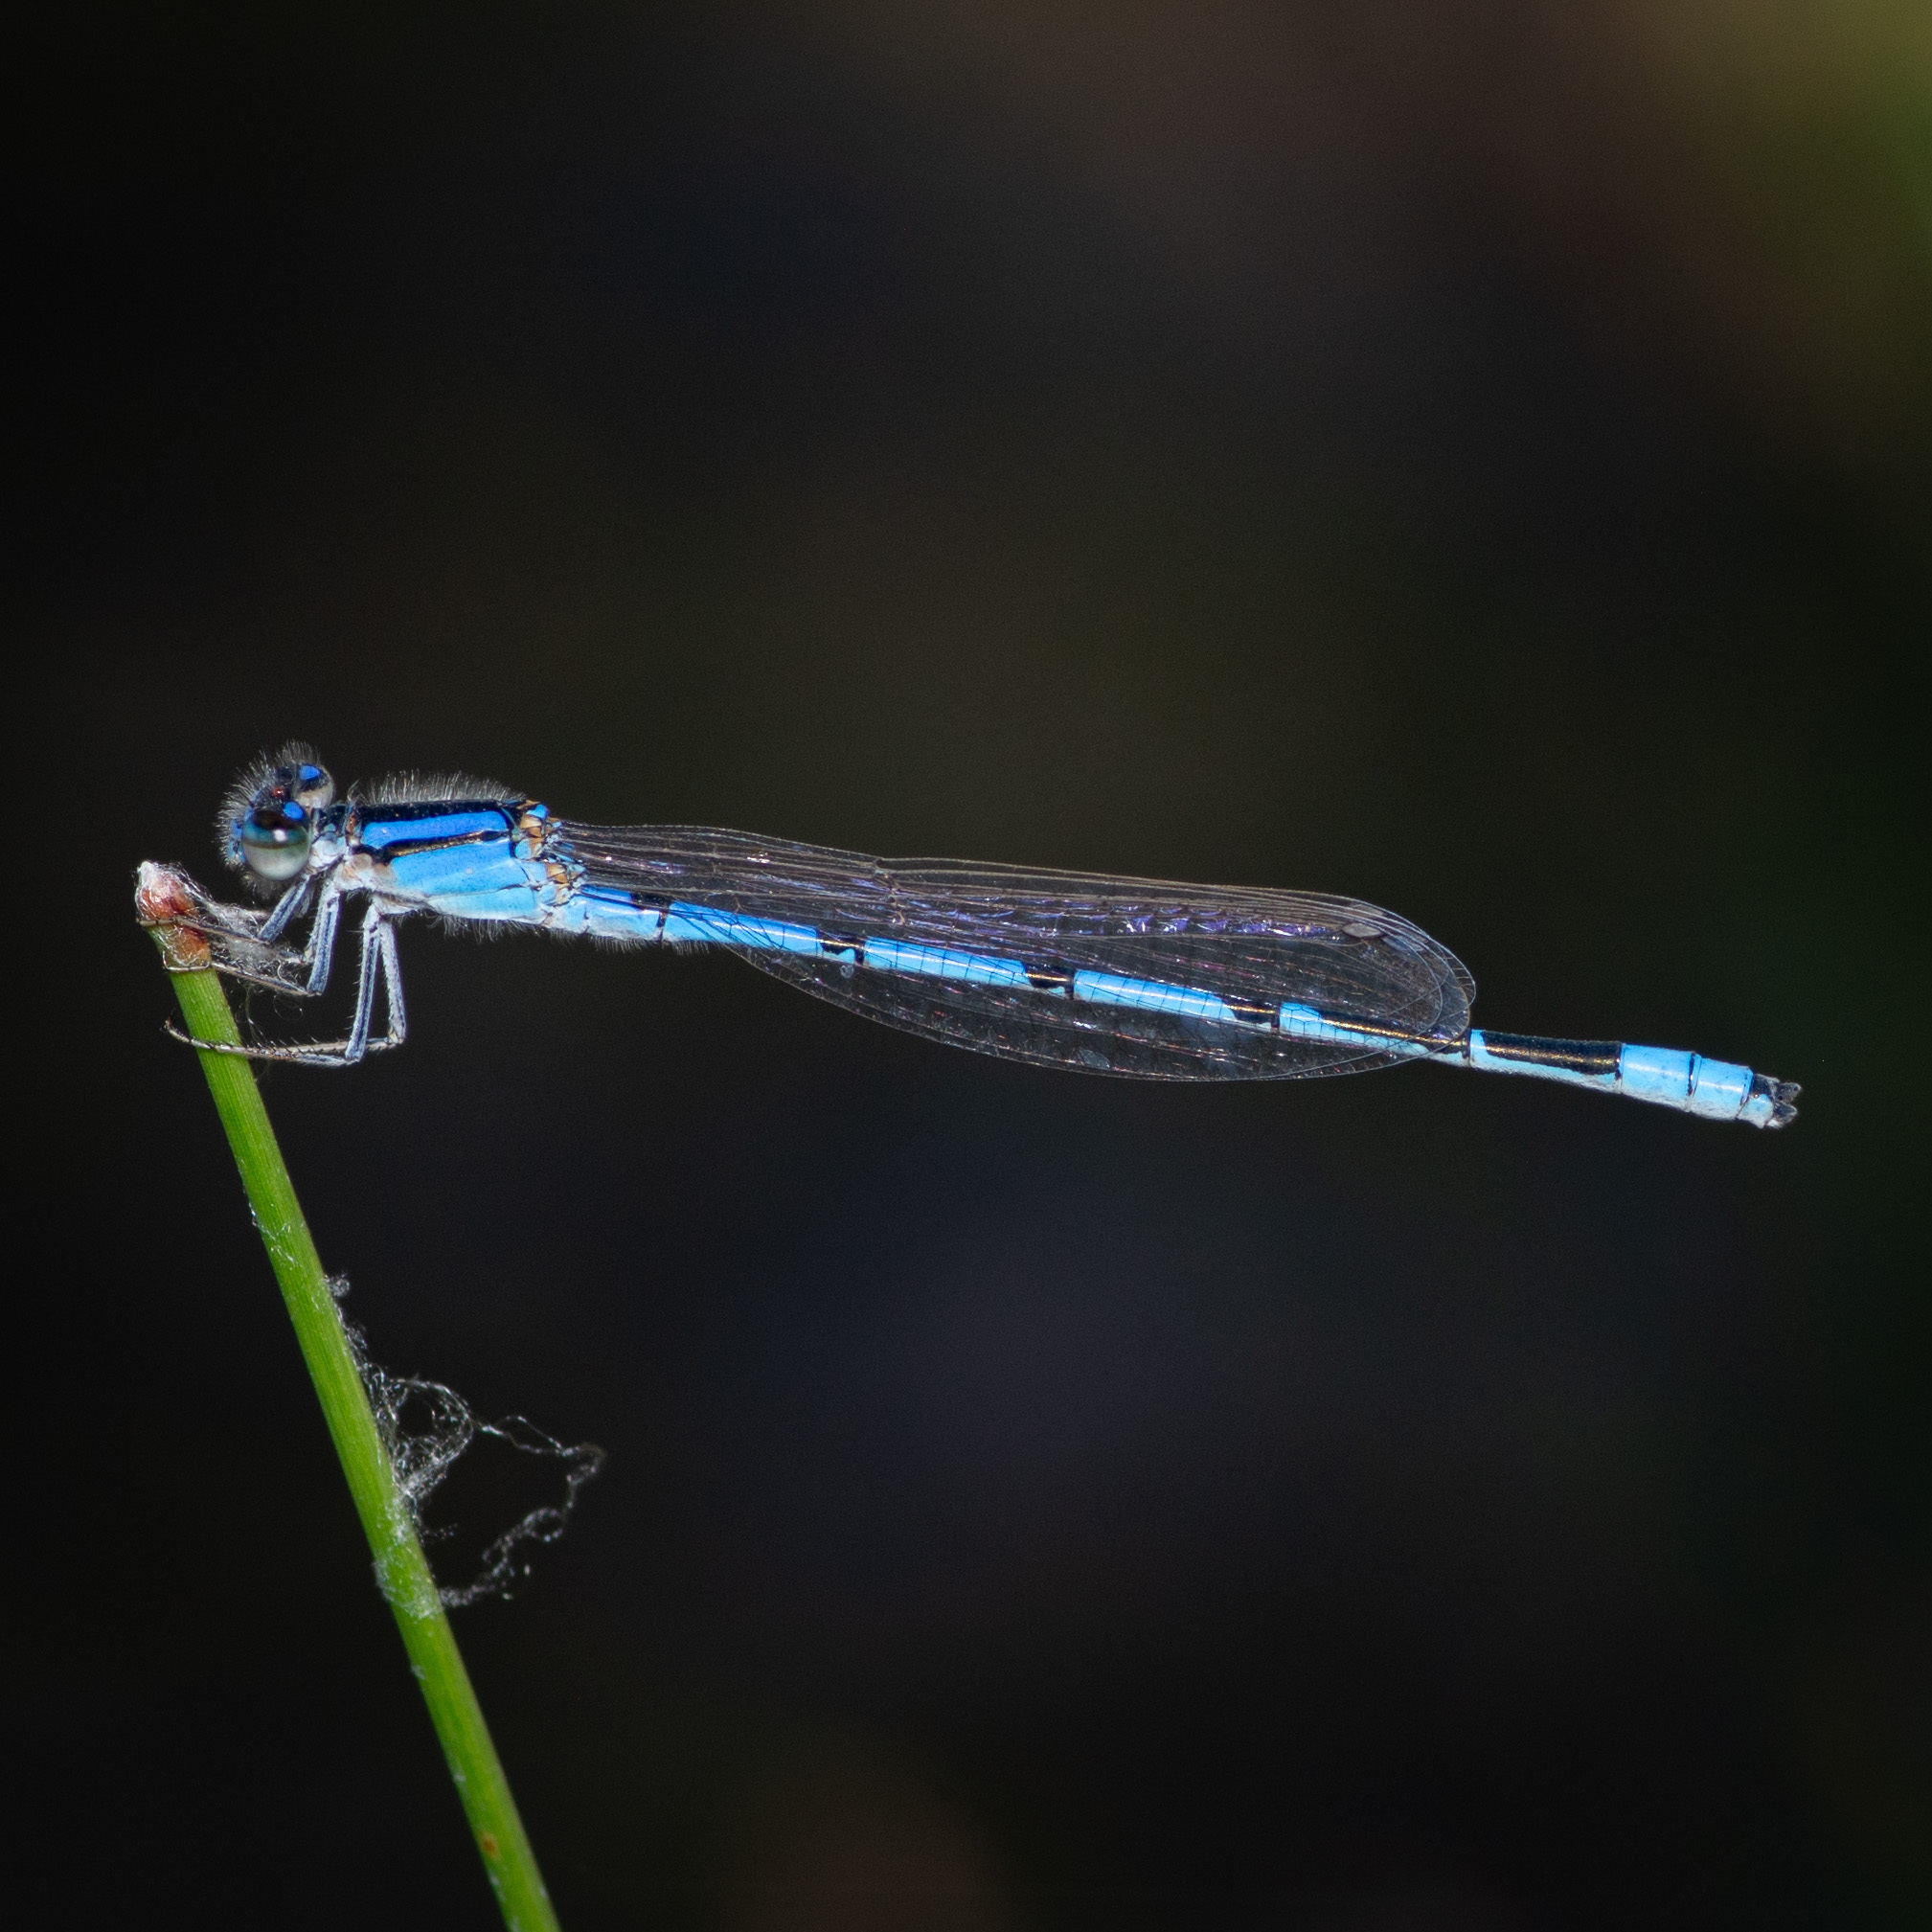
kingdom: Animalia
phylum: Arthropoda
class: Insecta
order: Odonata
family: Coenagrionidae
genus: Enallagma
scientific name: Enallagma civile
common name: Damselfly
